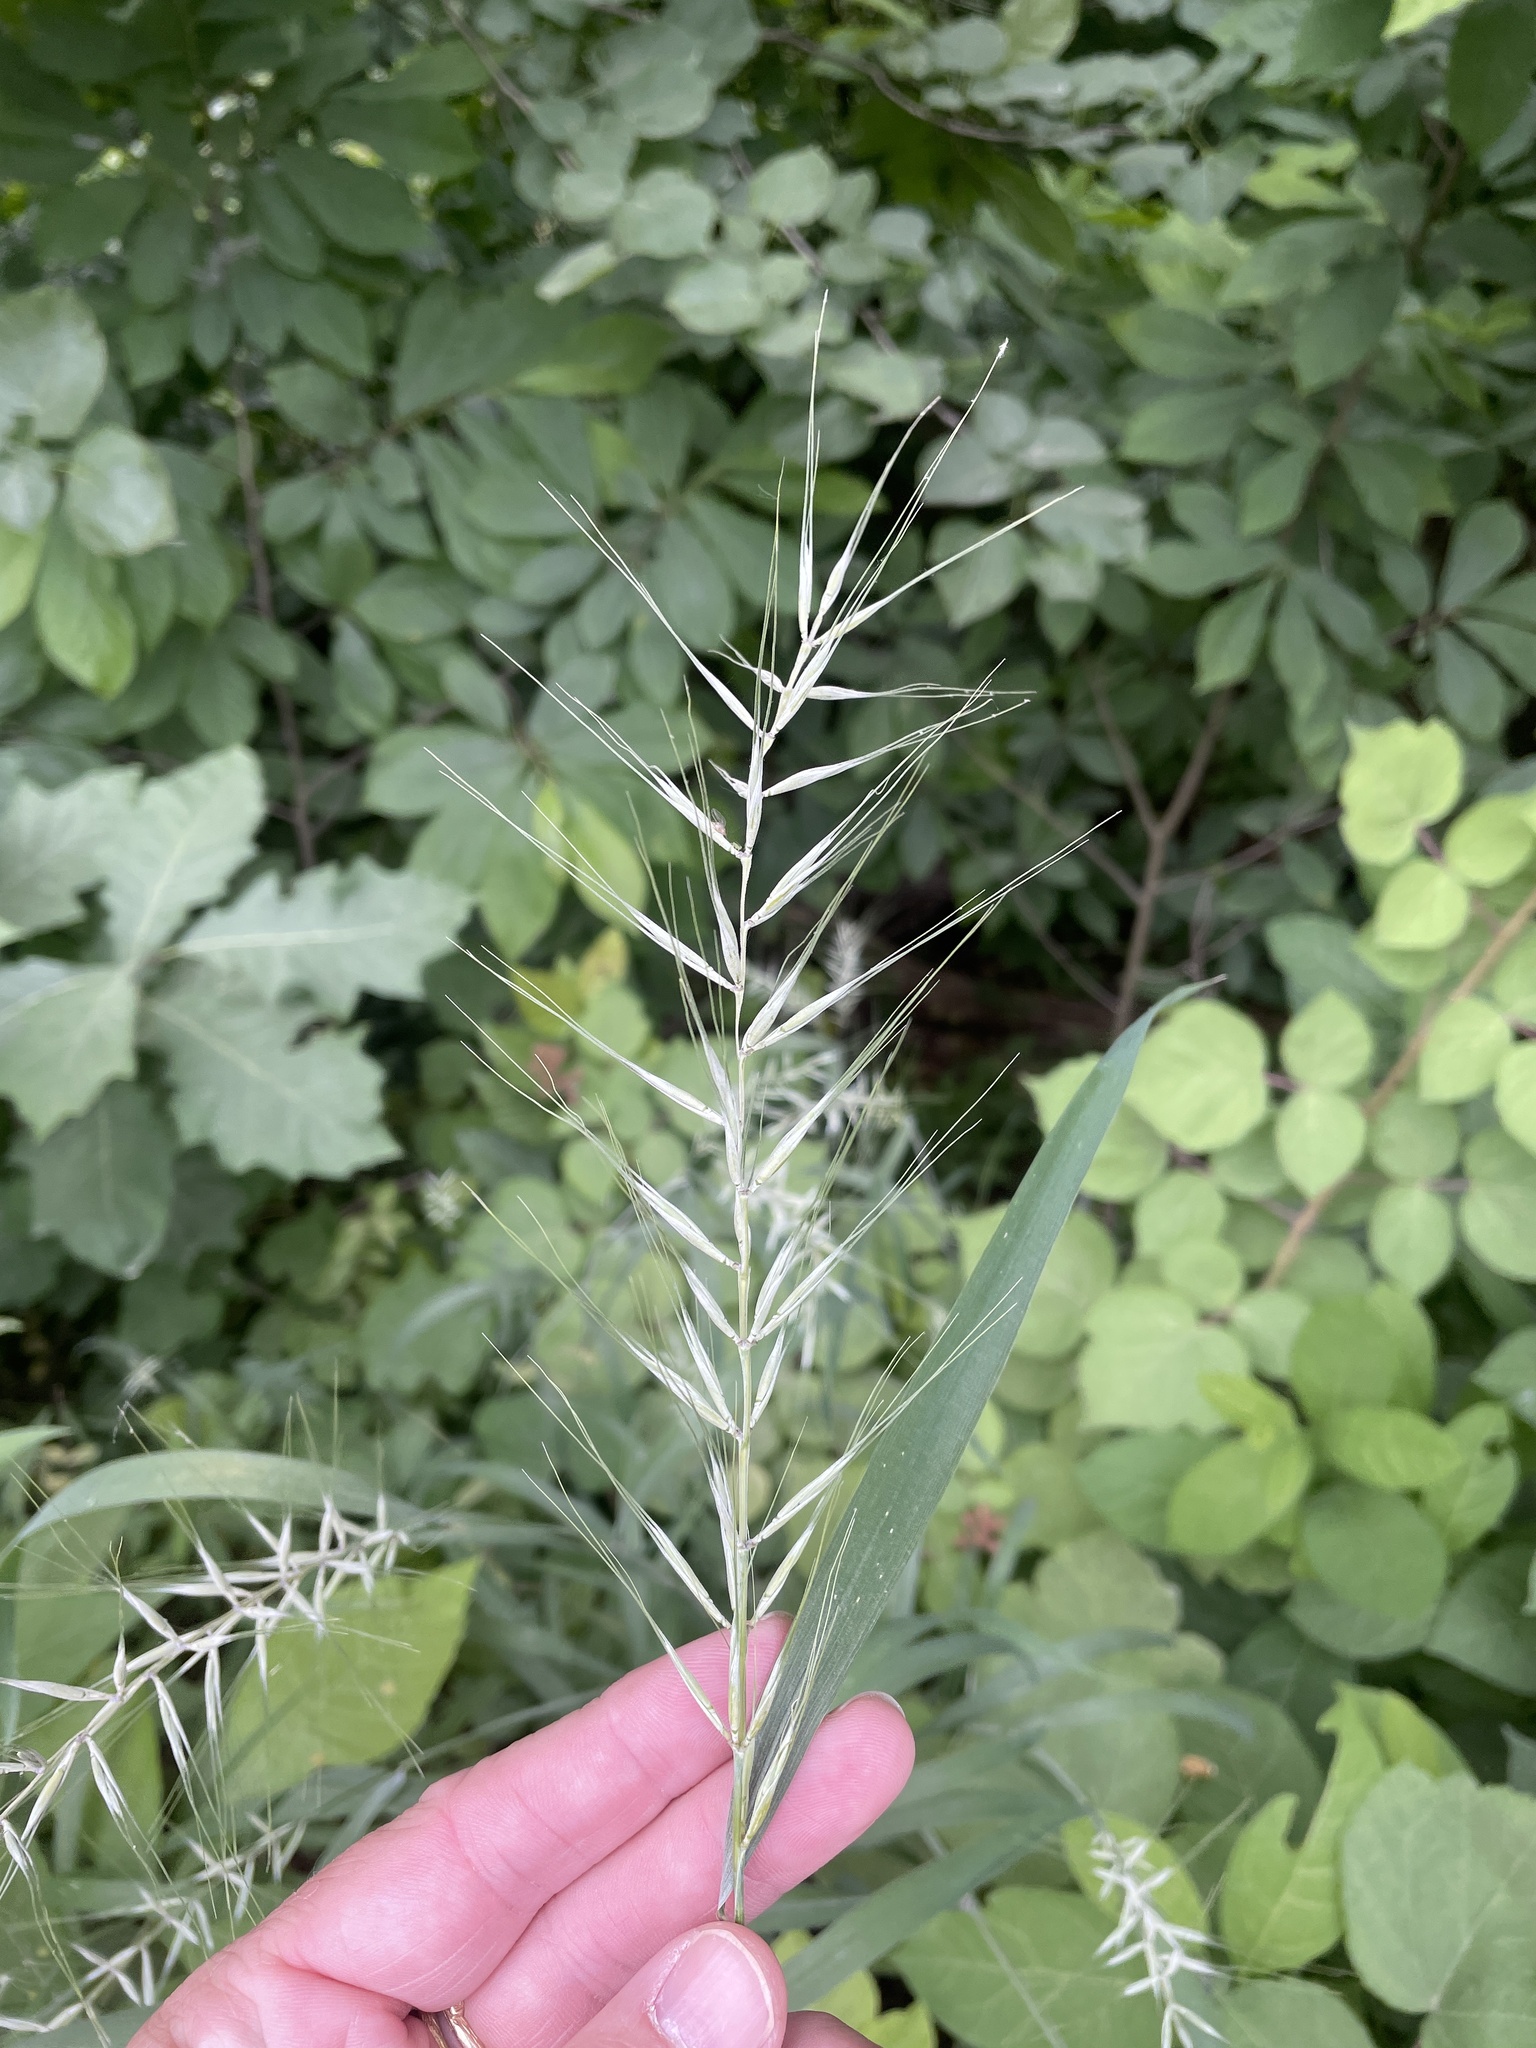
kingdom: Plantae
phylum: Tracheophyta
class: Liliopsida
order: Poales
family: Poaceae
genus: Elymus
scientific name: Elymus hystrix
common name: Bottlebrush grass
